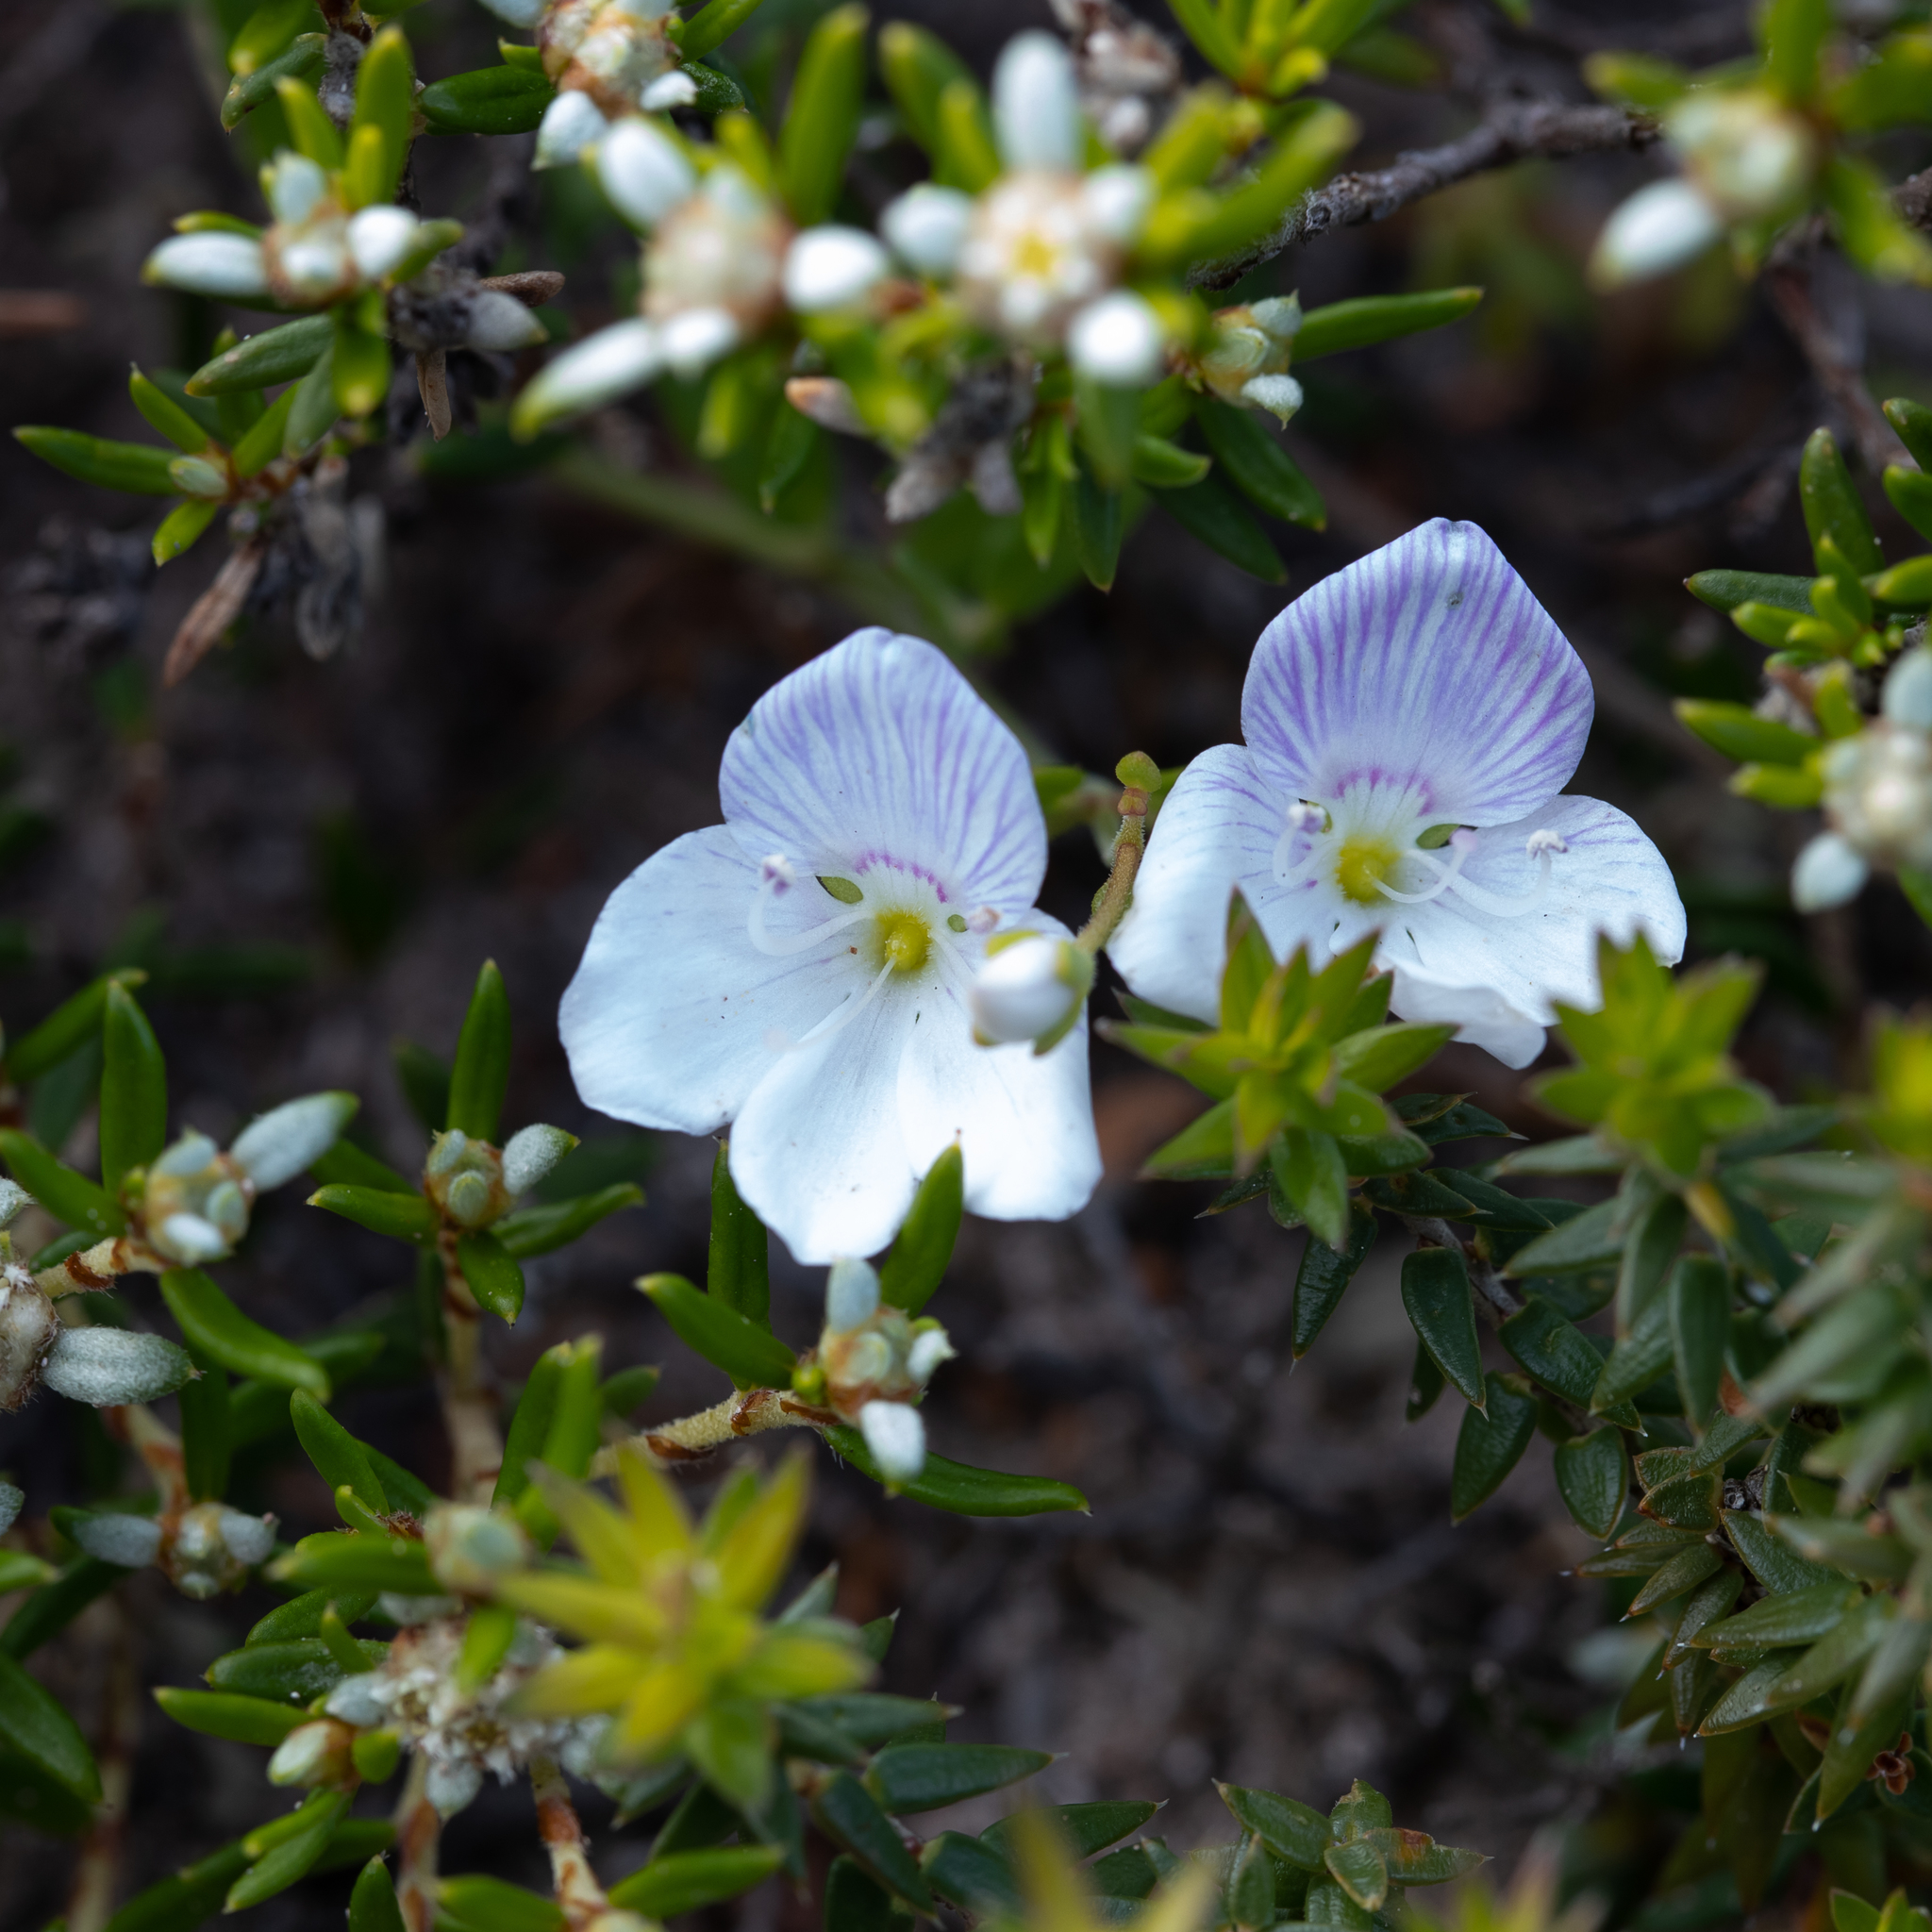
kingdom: Plantae
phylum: Tracheophyta
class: Magnoliopsida
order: Lamiales
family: Plantaginaceae
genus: Veronica
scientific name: Veronica hillebrandii
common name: Coast speedwell
